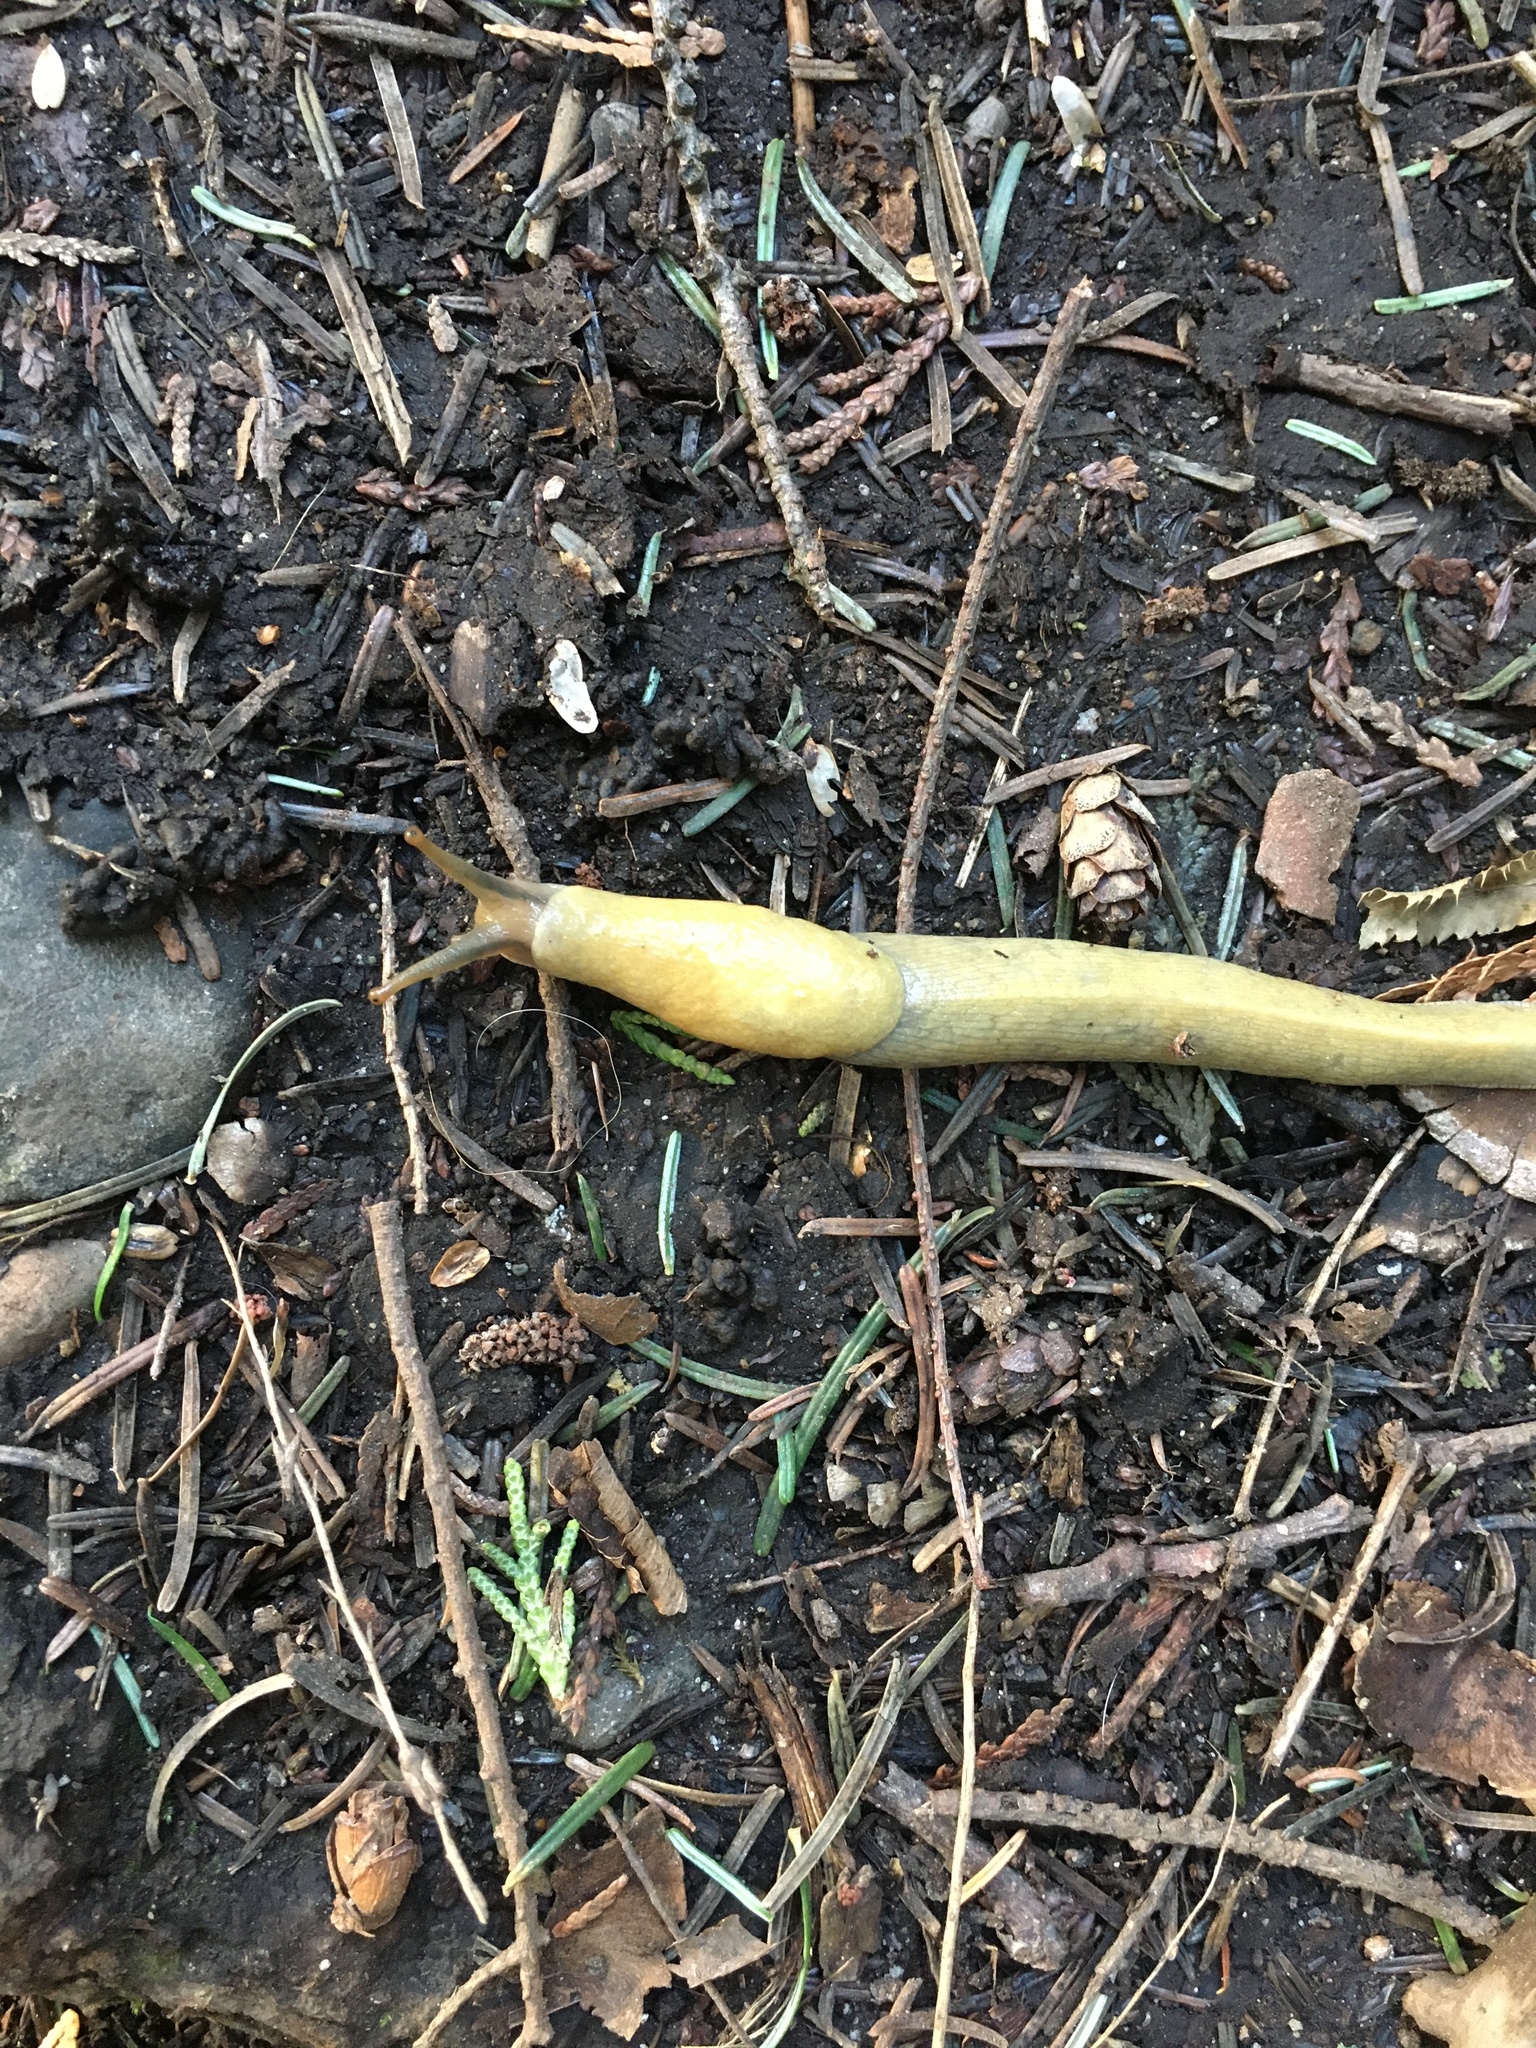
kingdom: Animalia
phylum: Mollusca
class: Gastropoda
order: Stylommatophora
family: Ariolimacidae
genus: Ariolimax
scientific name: Ariolimax columbianus
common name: Pacific banana slug
